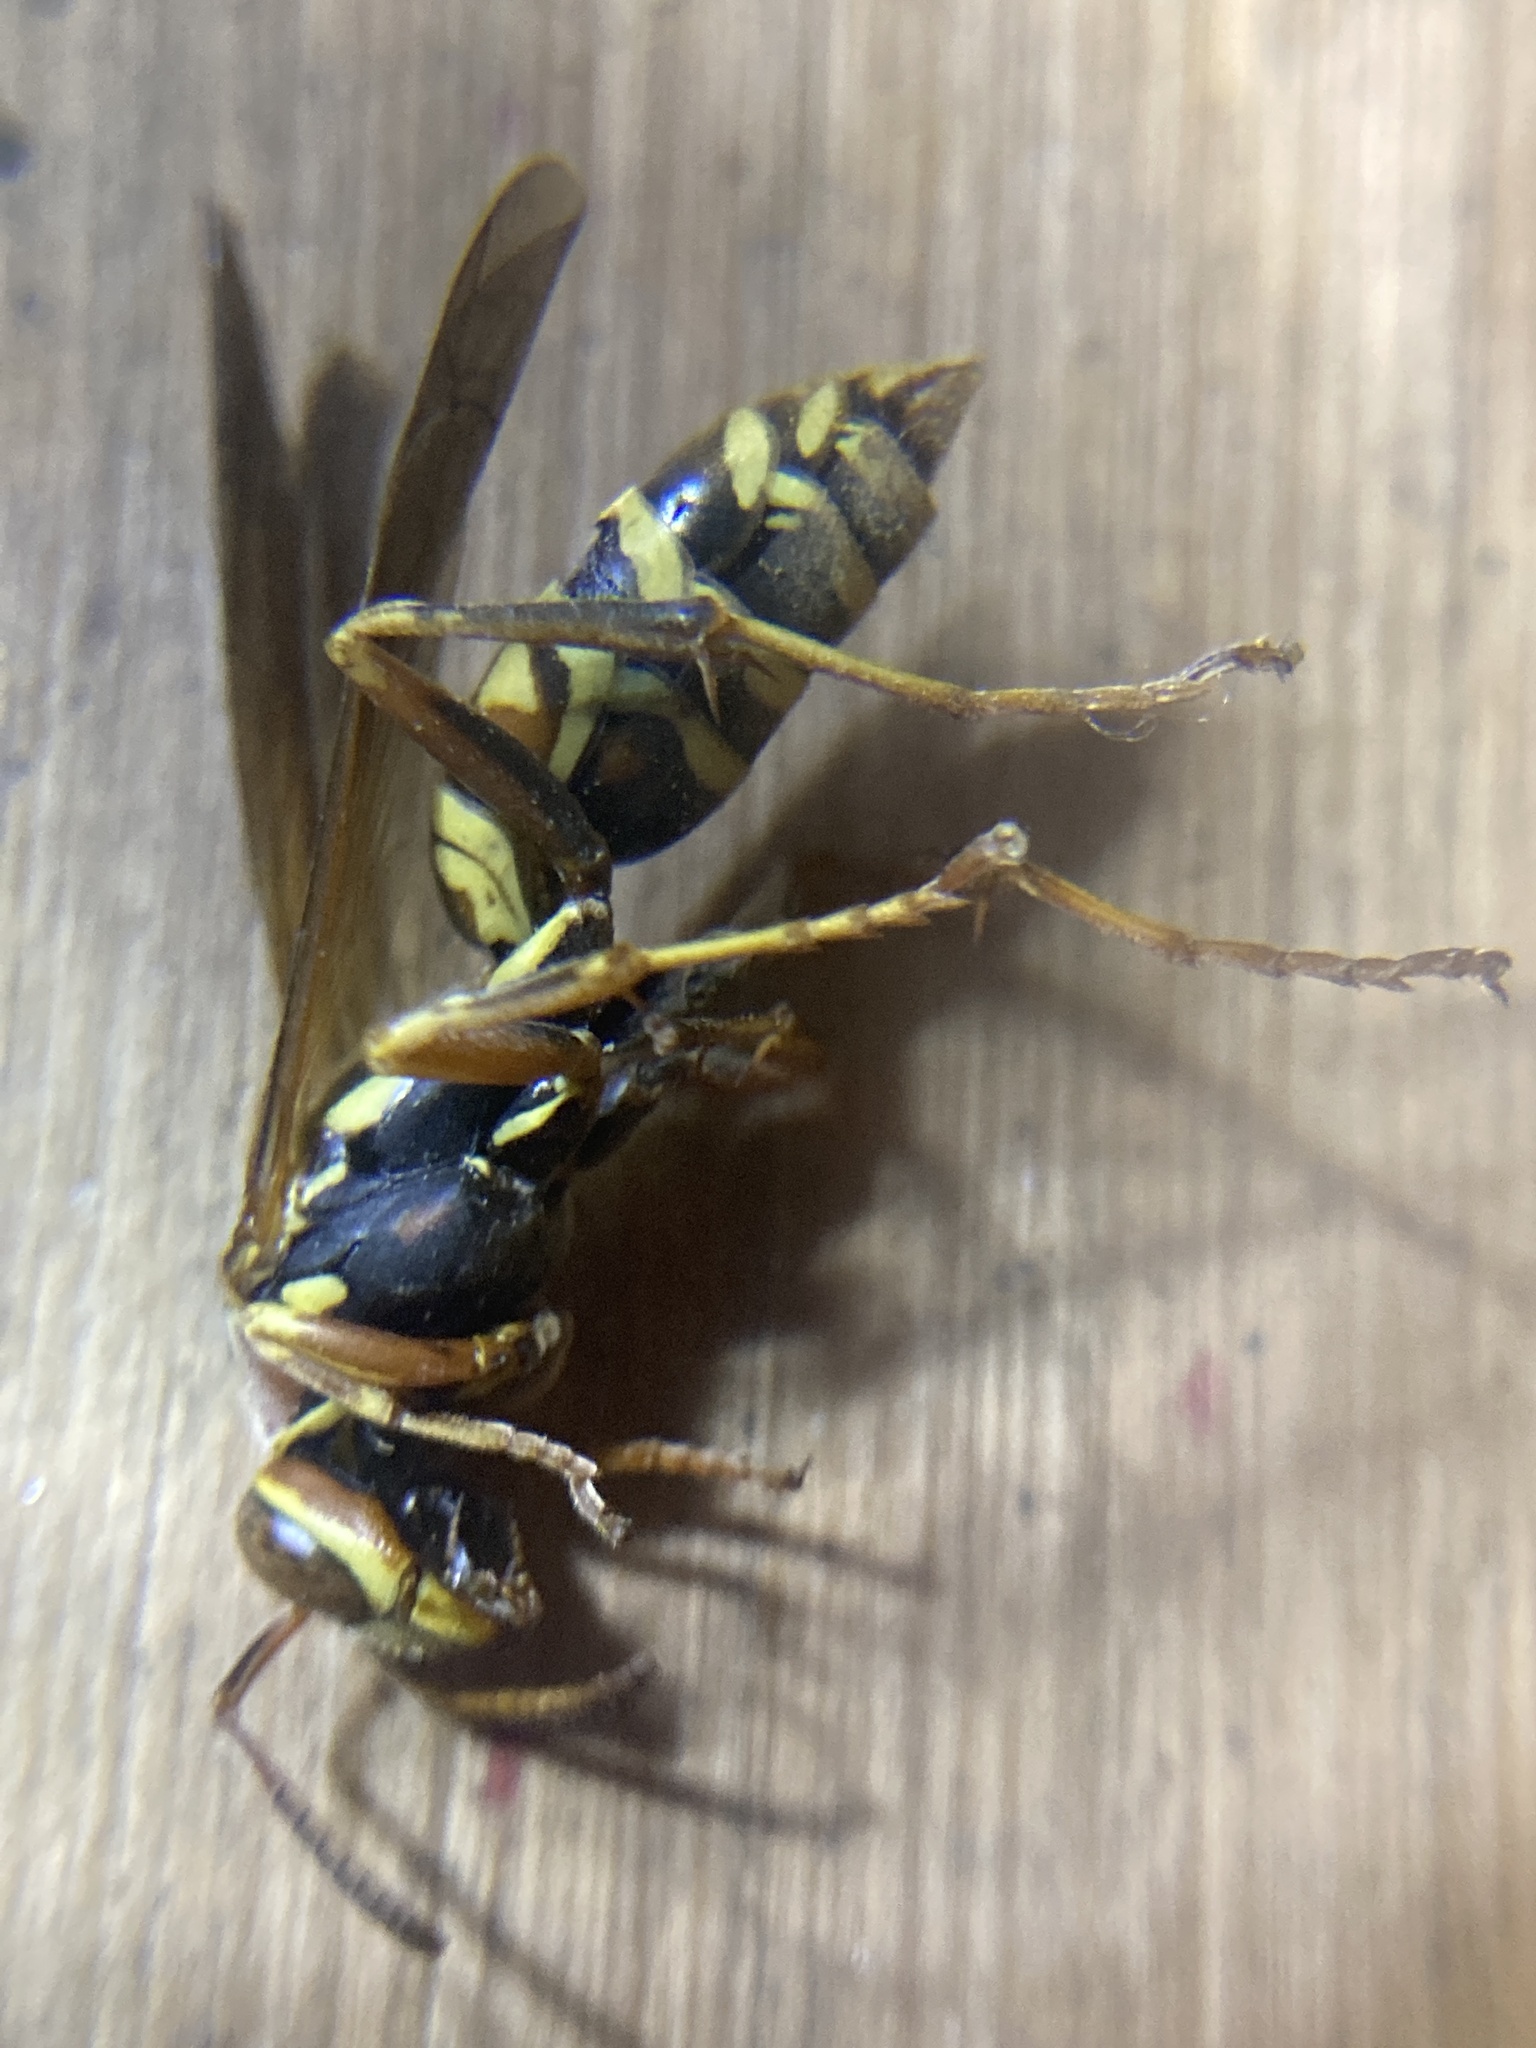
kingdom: Animalia
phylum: Arthropoda
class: Insecta
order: Hymenoptera
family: Eumenidae
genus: Polistes
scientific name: Polistes fuscatus
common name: Dark paper wasp
